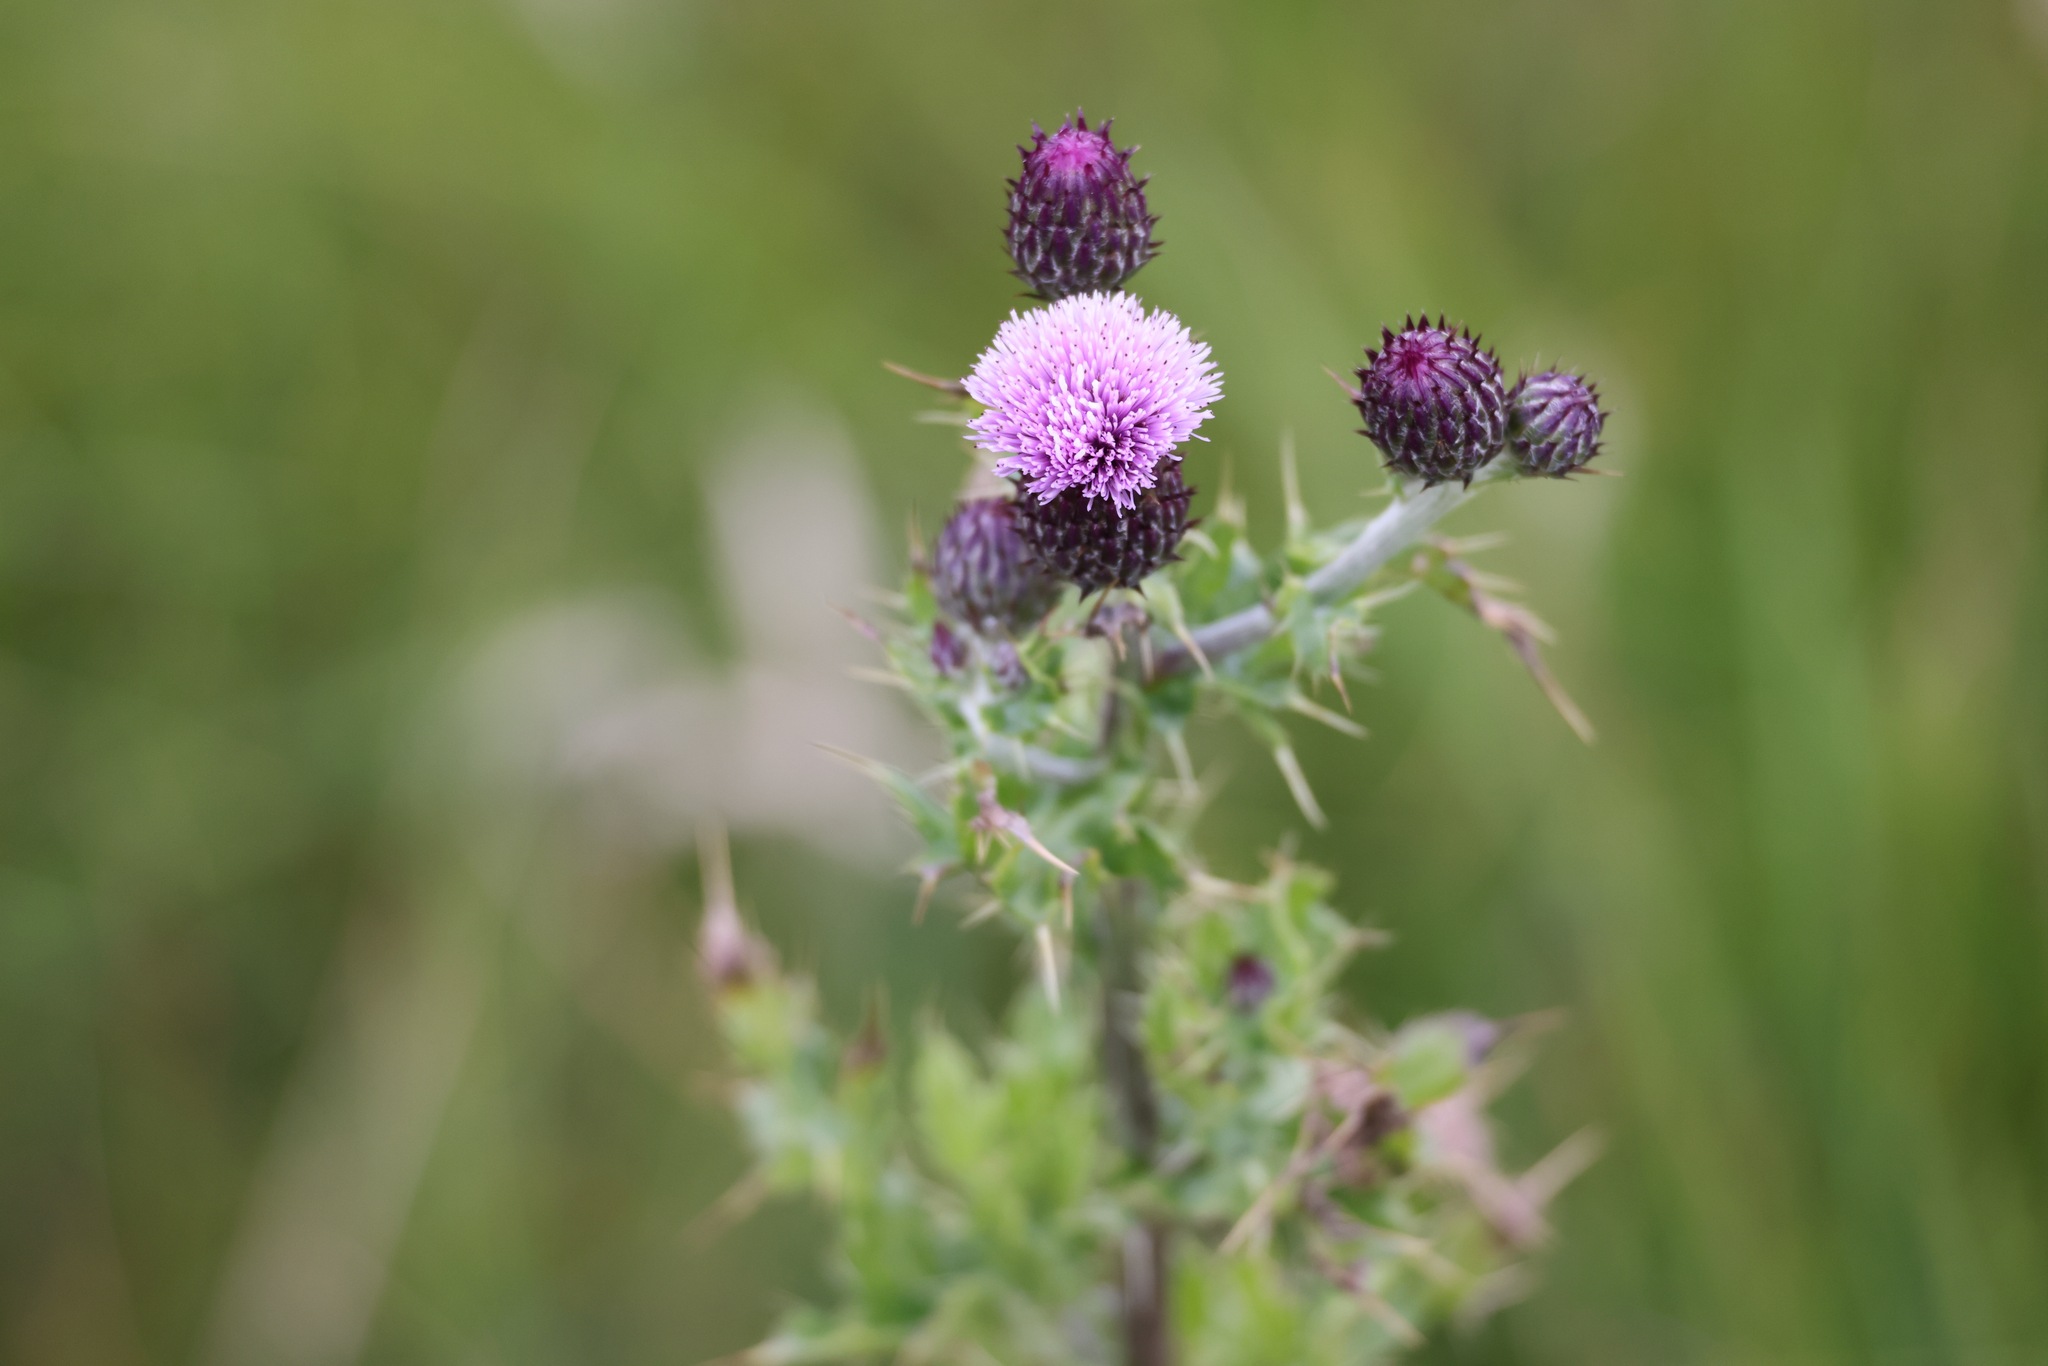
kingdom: Plantae
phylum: Tracheophyta
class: Magnoliopsida
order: Asterales
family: Asteraceae
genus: Cirsium
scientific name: Cirsium arvense
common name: Creeping thistle
